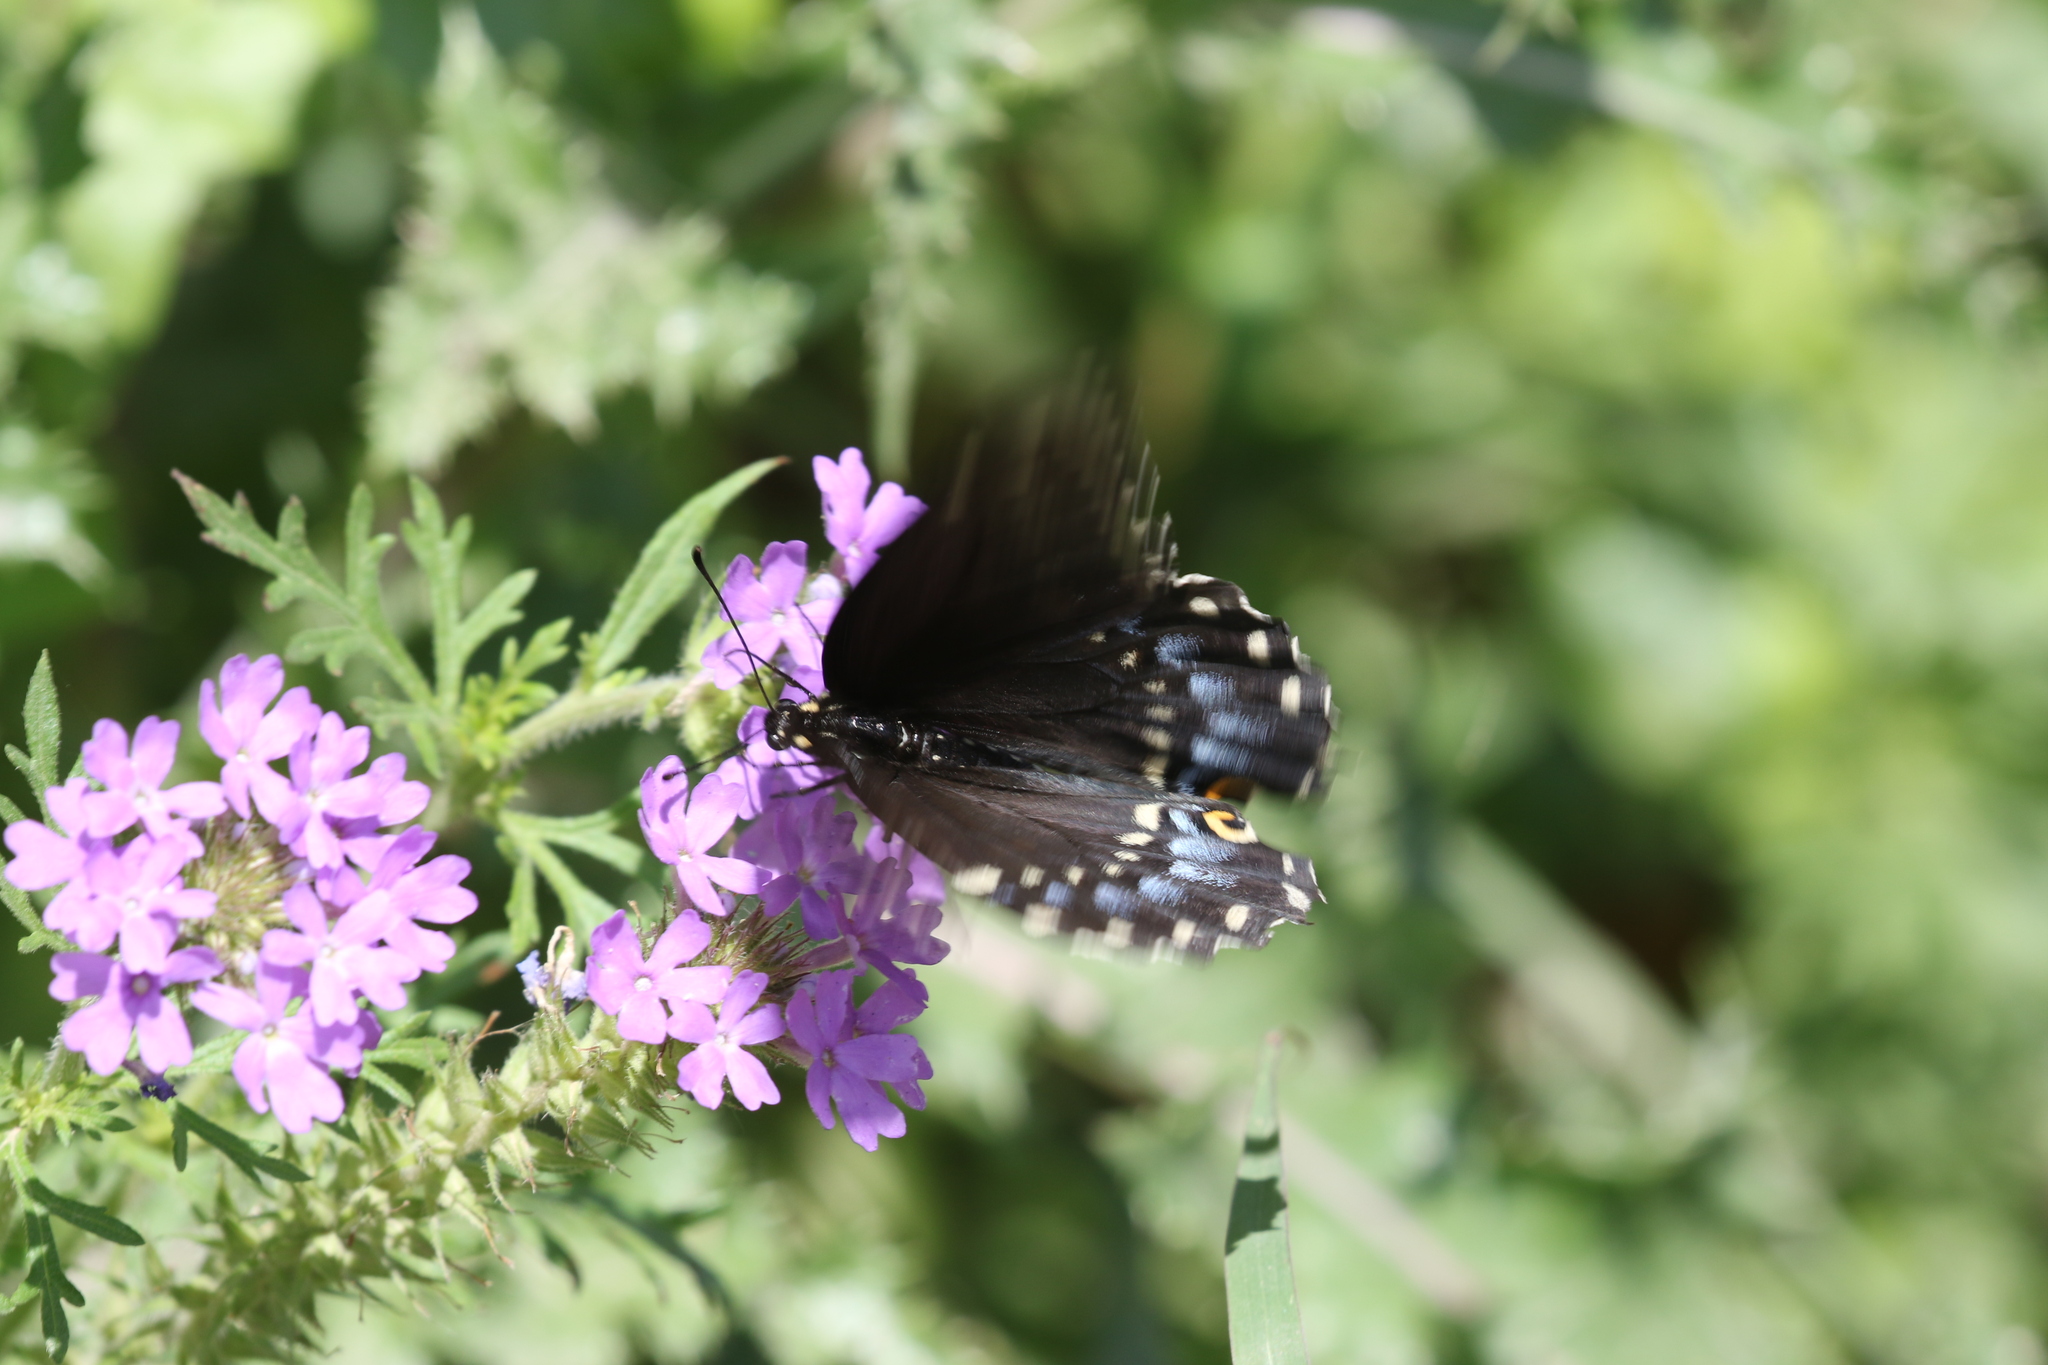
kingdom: Animalia
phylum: Arthropoda
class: Insecta
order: Lepidoptera
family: Papilionidae
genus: Papilio
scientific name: Papilio polyxenes
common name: Black swallowtail
